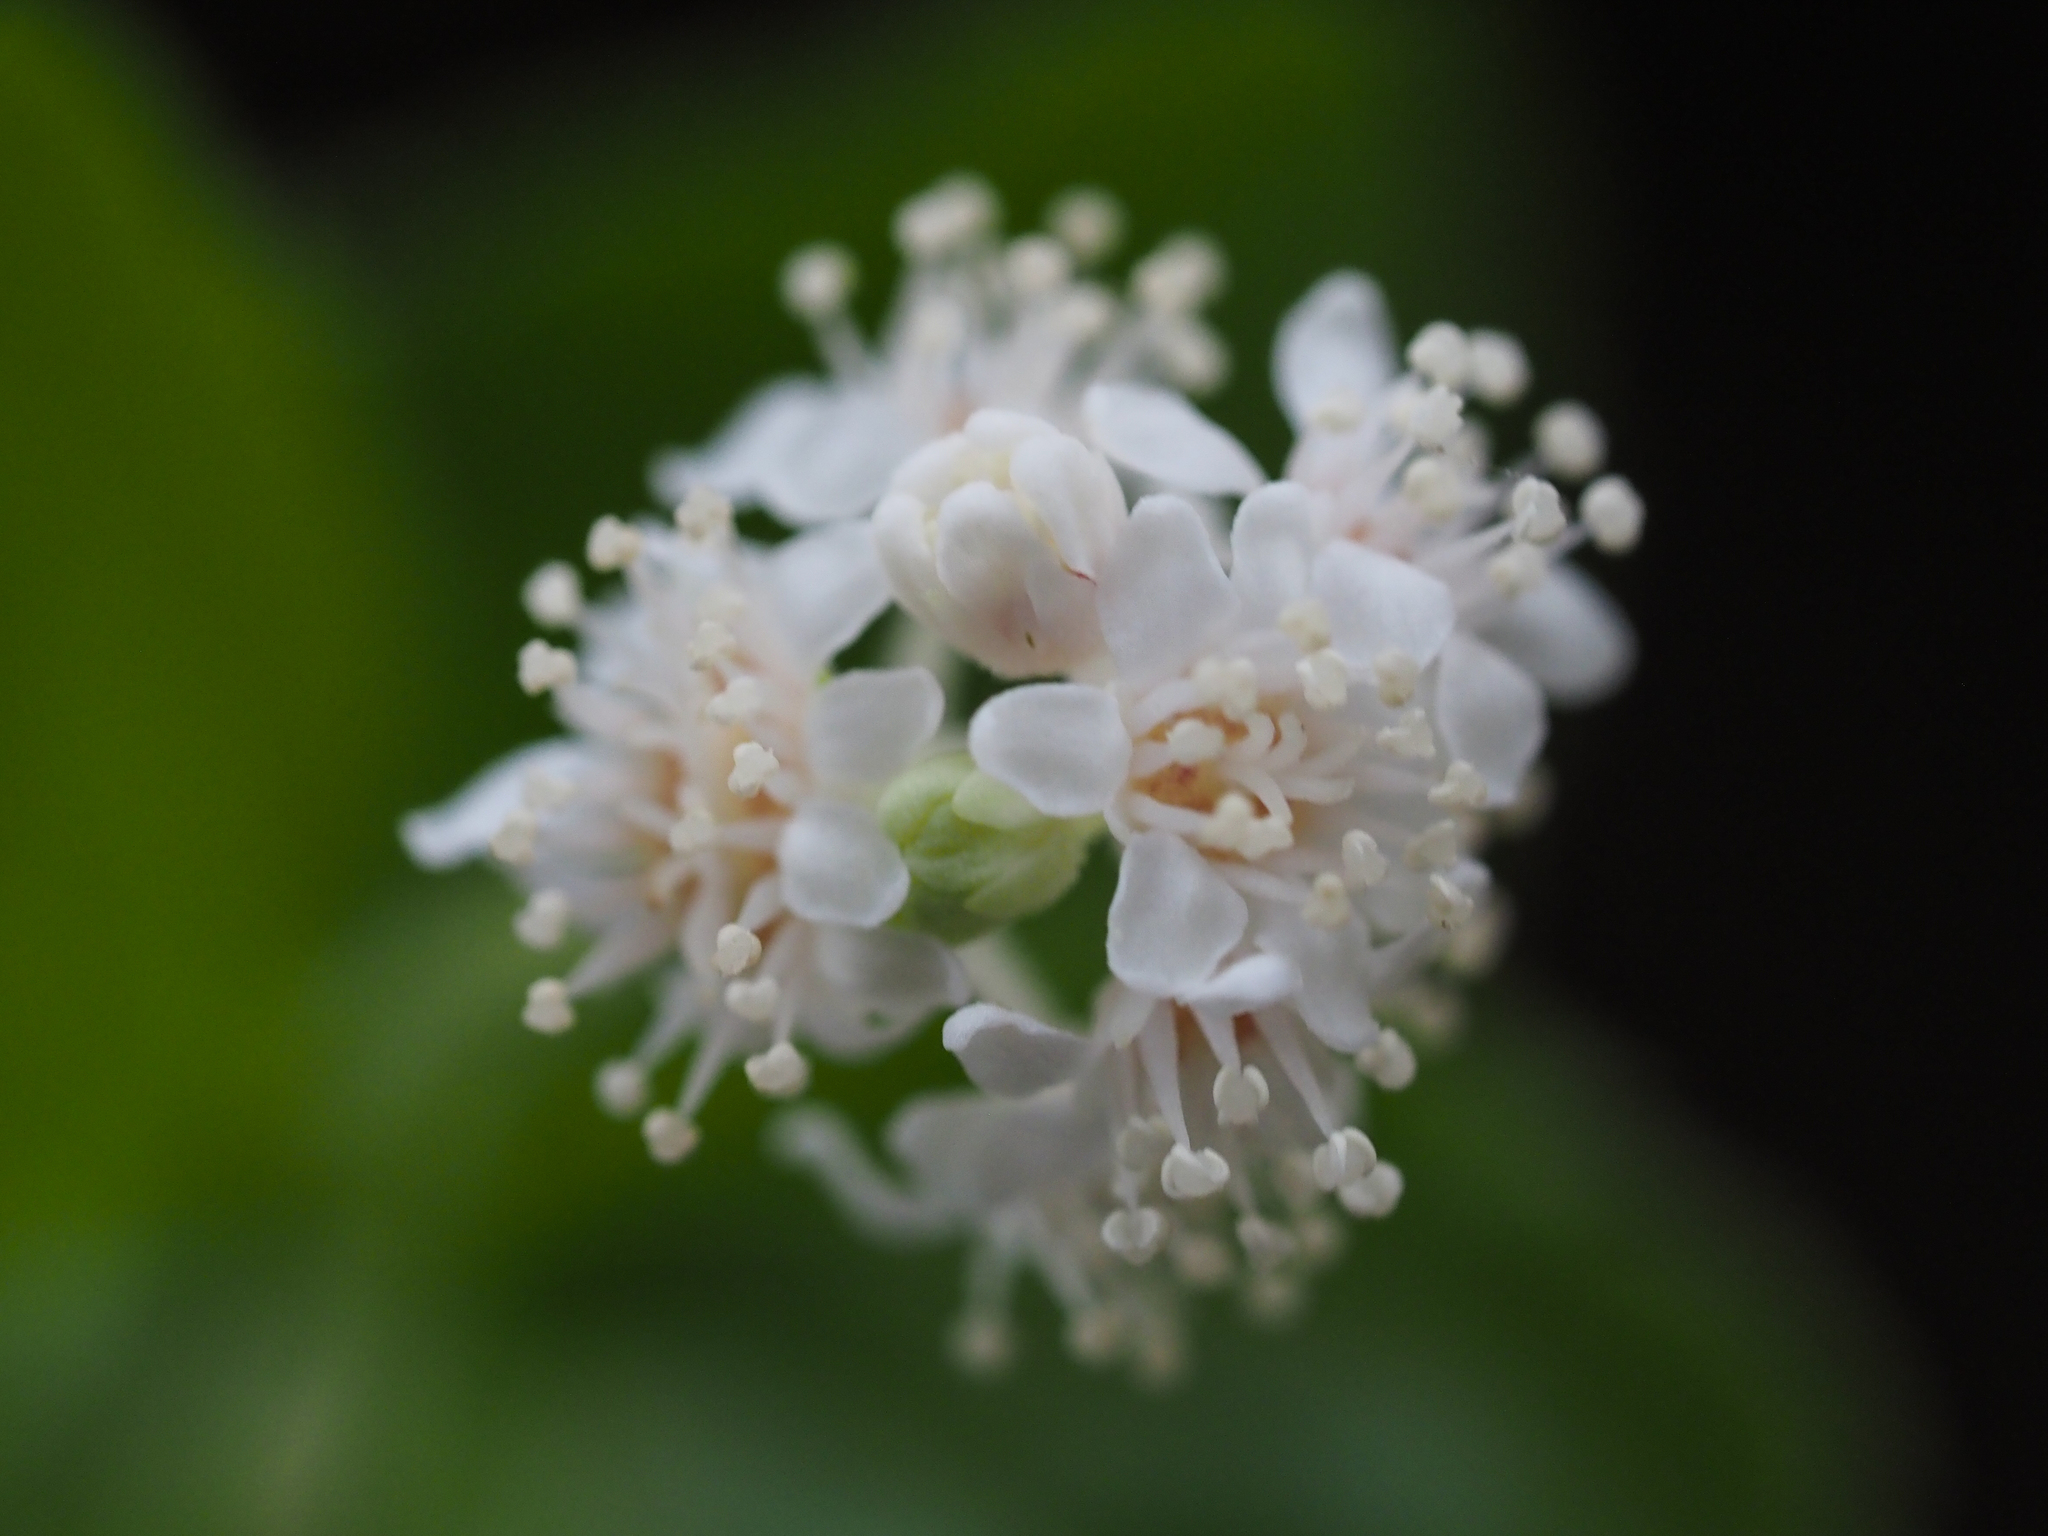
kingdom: Plantae
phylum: Tracheophyta
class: Magnoliopsida
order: Cornales
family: Hydrangeaceae
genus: Whipplea
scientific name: Whipplea modesta
